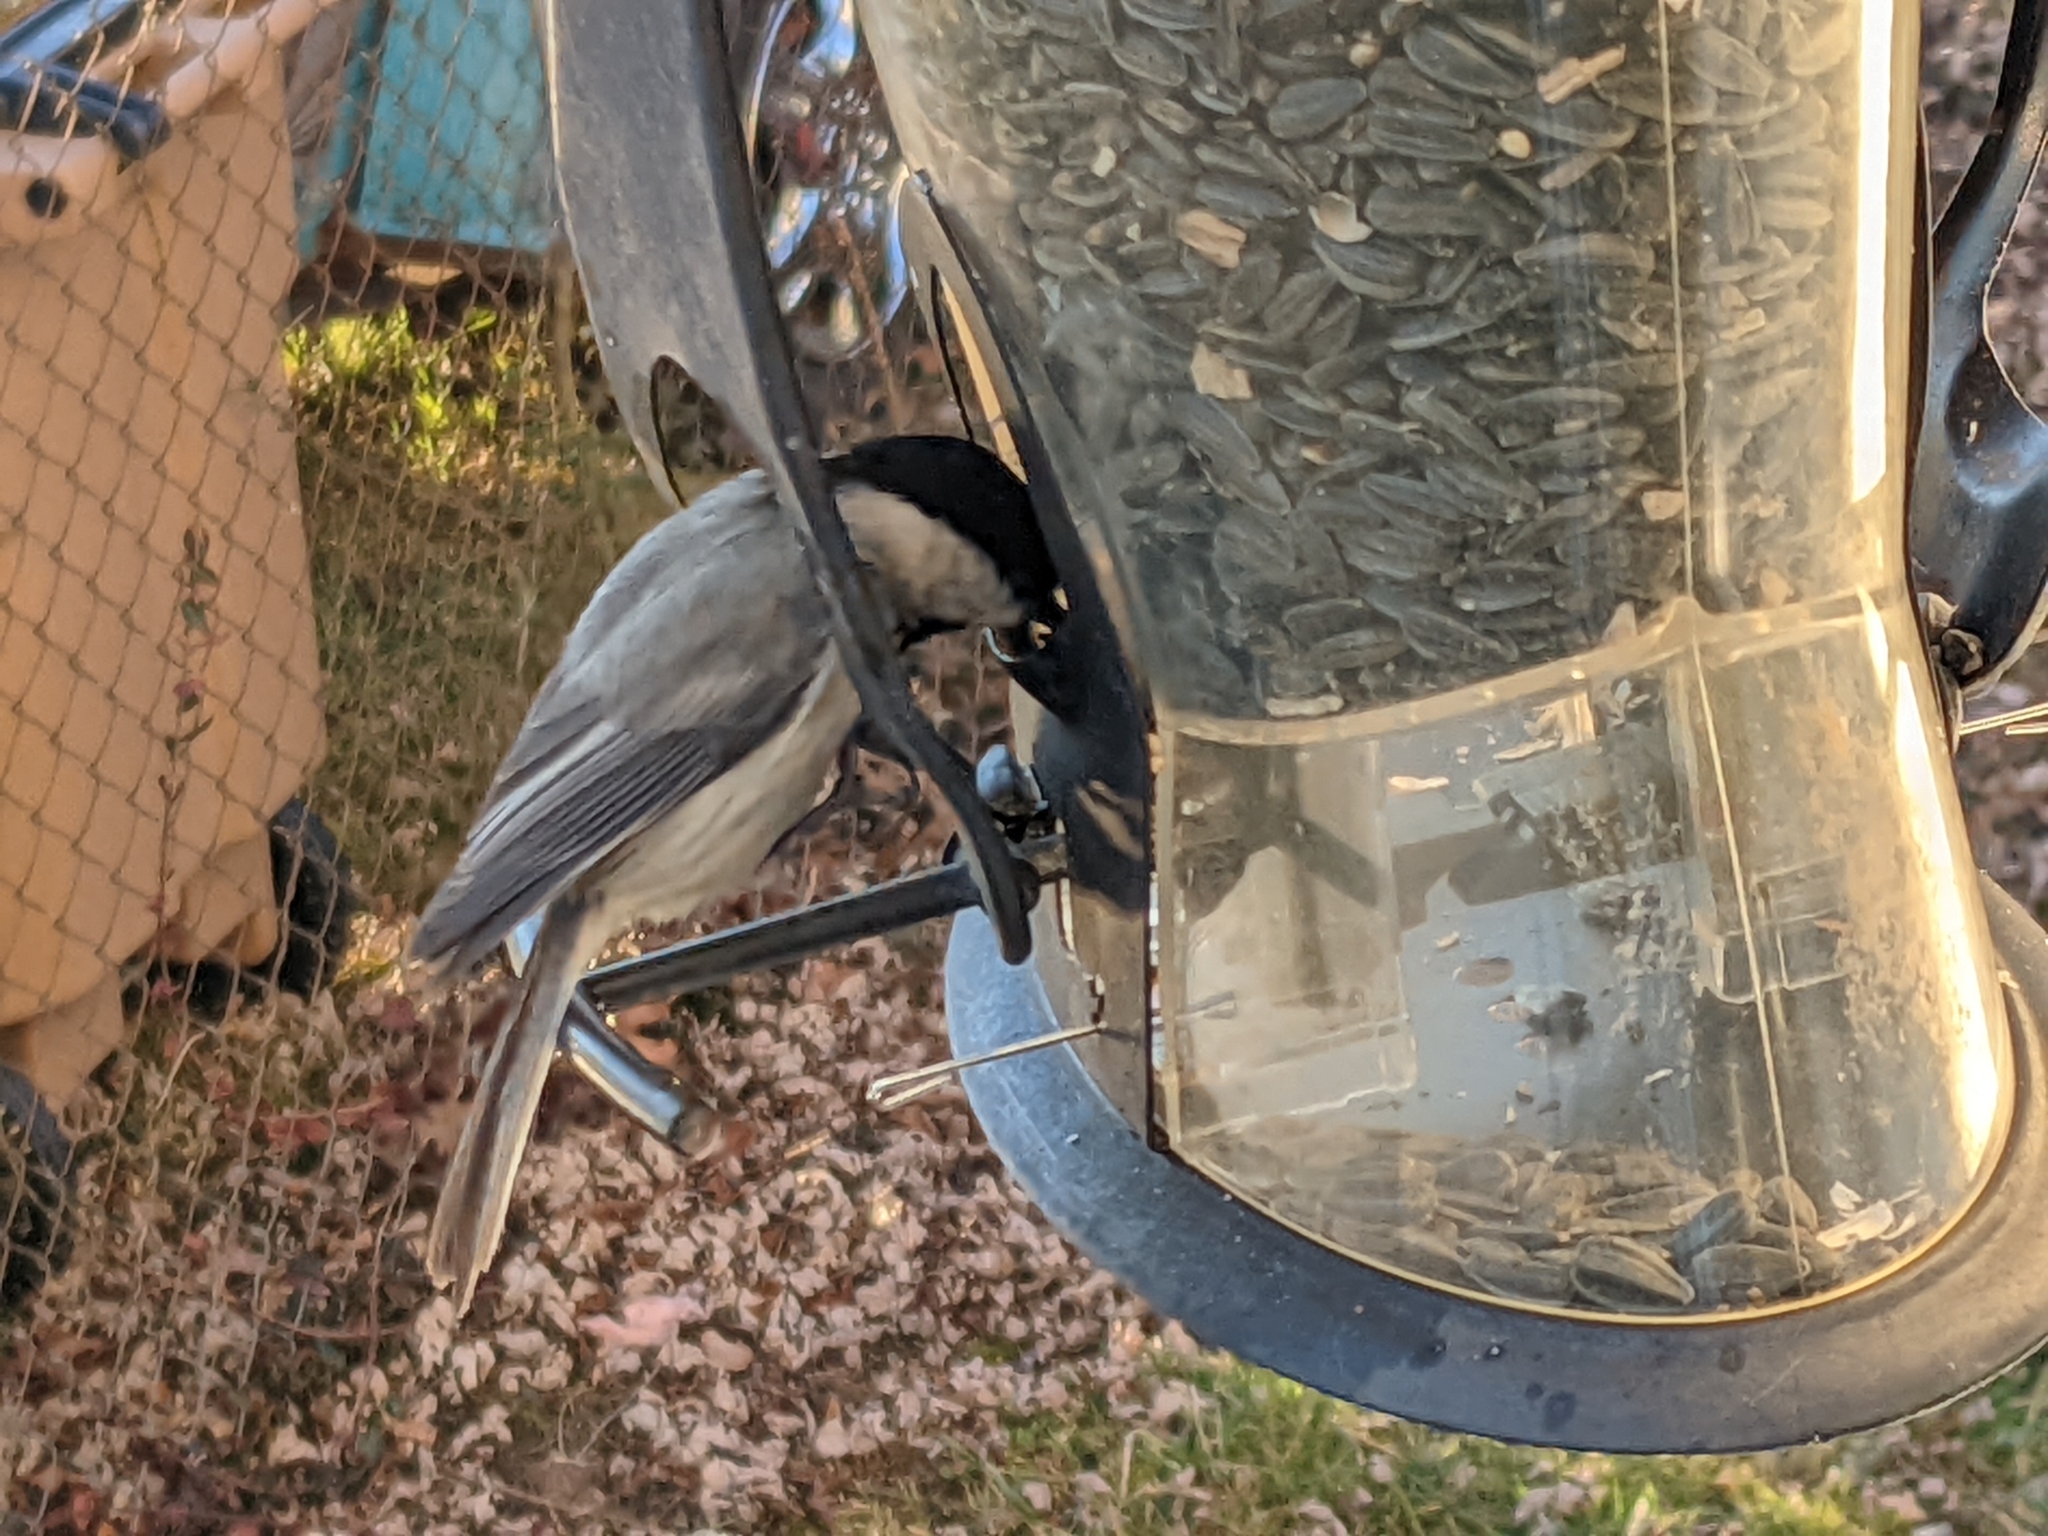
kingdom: Animalia
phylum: Chordata
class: Aves
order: Passeriformes
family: Paridae
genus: Poecile
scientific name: Poecile carolinensis
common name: Carolina chickadee
